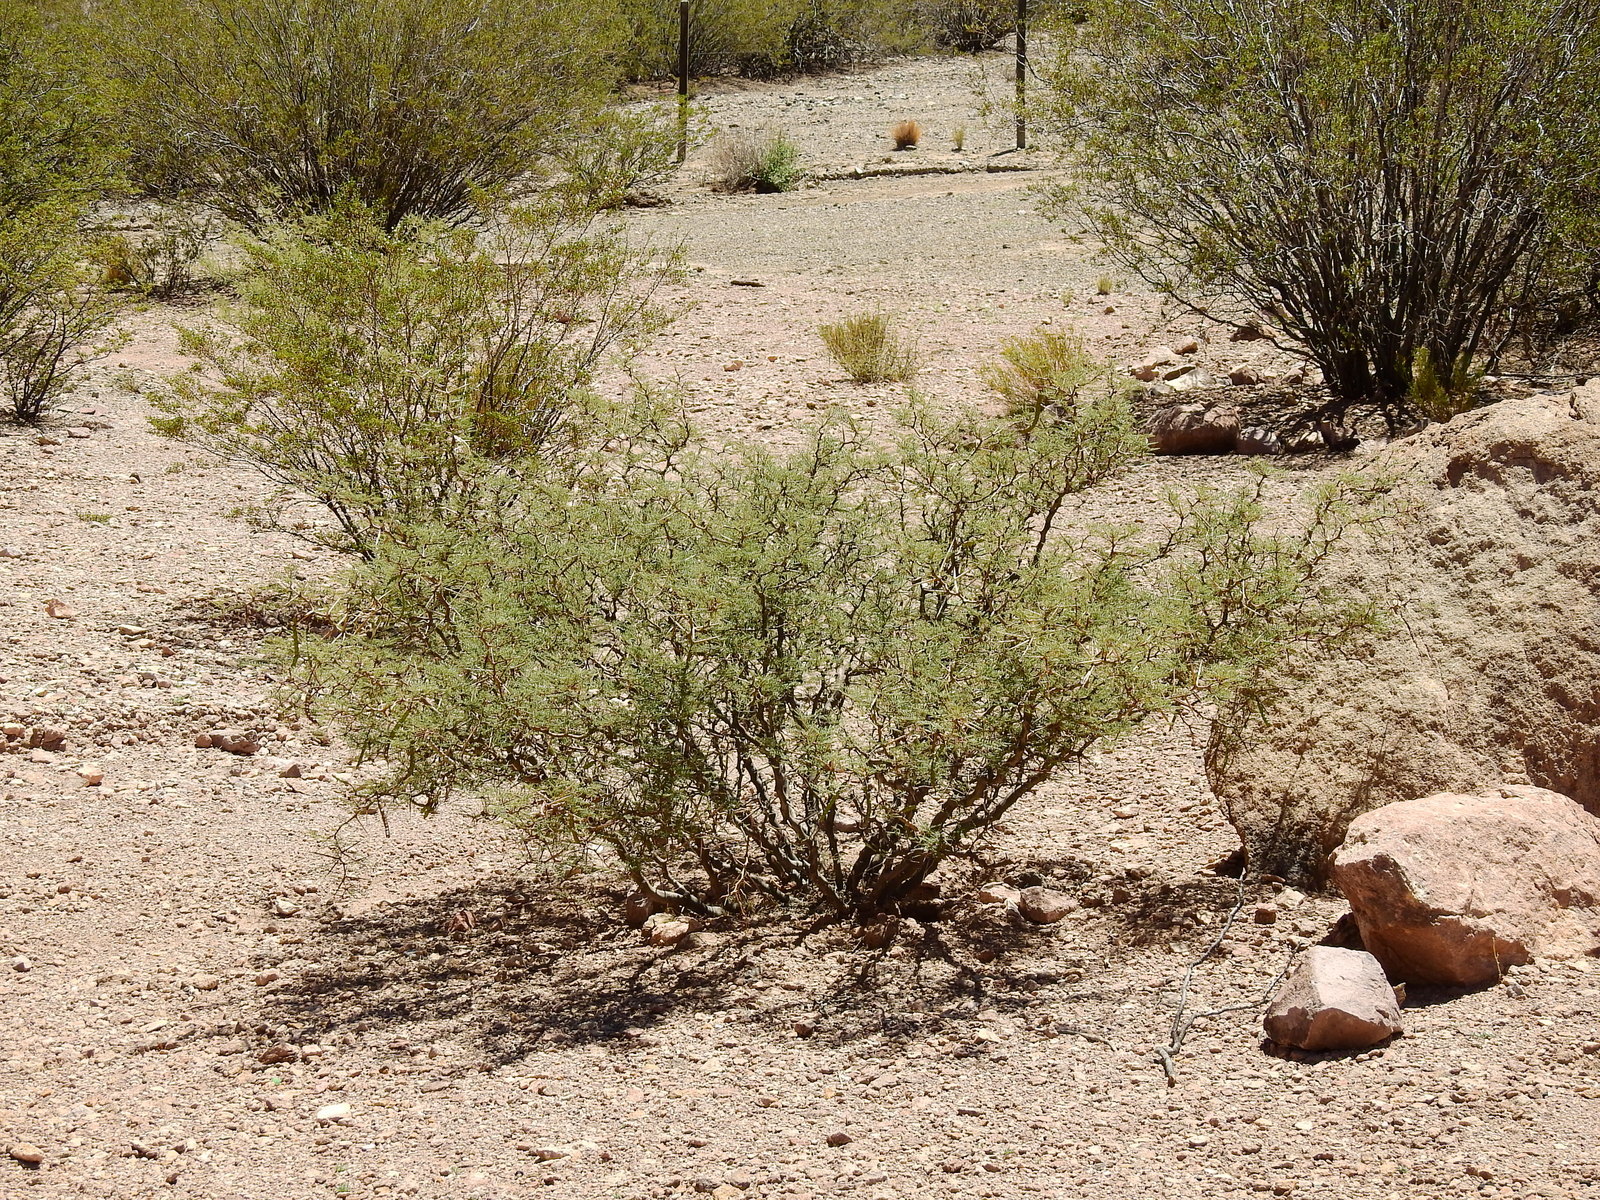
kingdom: Plantae
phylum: Tracheophyta
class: Magnoliopsida
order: Fabales
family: Fabaceae
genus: Prosopis
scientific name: Prosopis flexuosa
